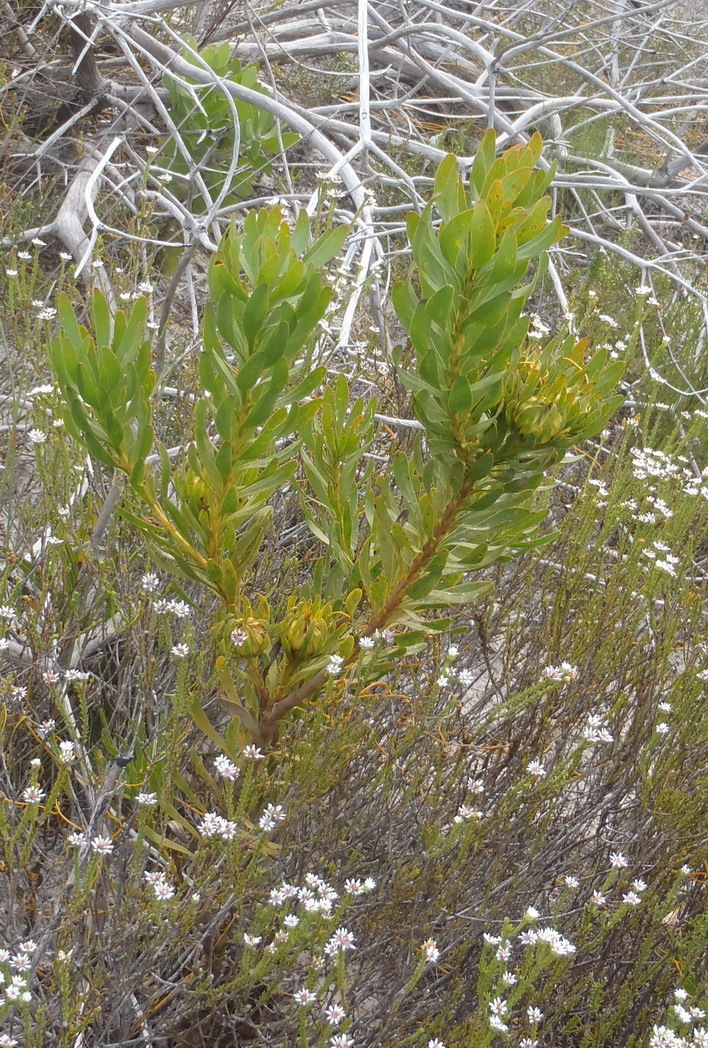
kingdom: Plantae
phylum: Tracheophyta
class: Magnoliopsida
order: Proteales
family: Proteaceae
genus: Aulax
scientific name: Aulax umbellata
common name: Broad-leaf featherbush
